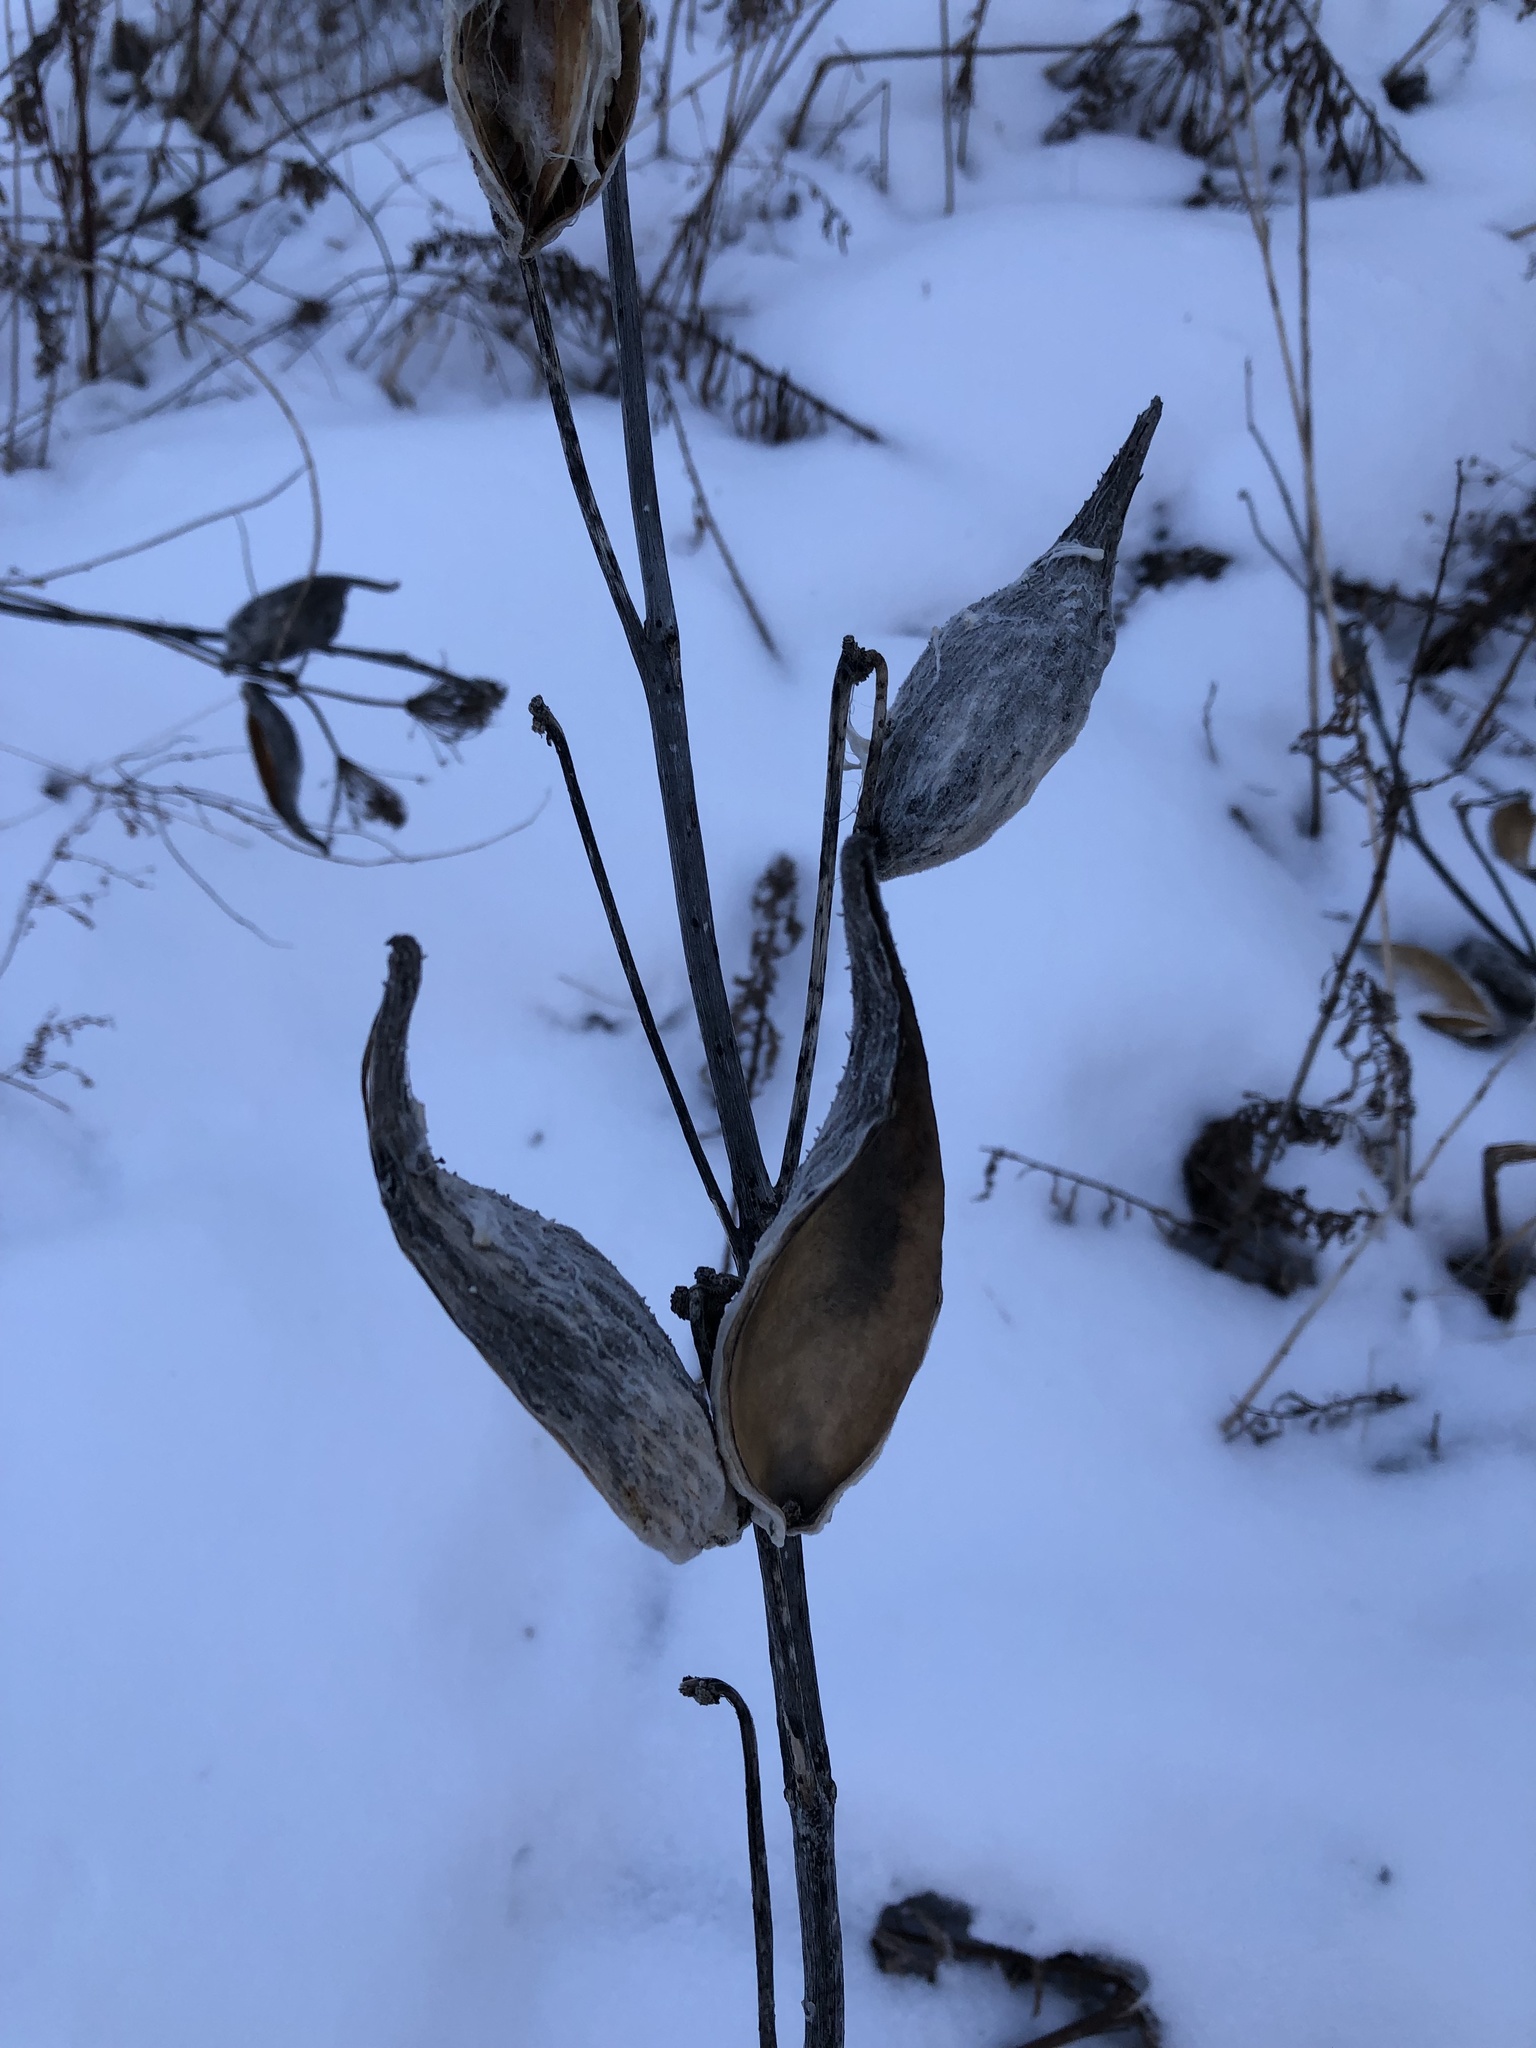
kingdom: Plantae
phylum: Tracheophyta
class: Magnoliopsida
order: Gentianales
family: Apocynaceae
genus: Asclepias
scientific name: Asclepias syriaca
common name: Common milkweed
